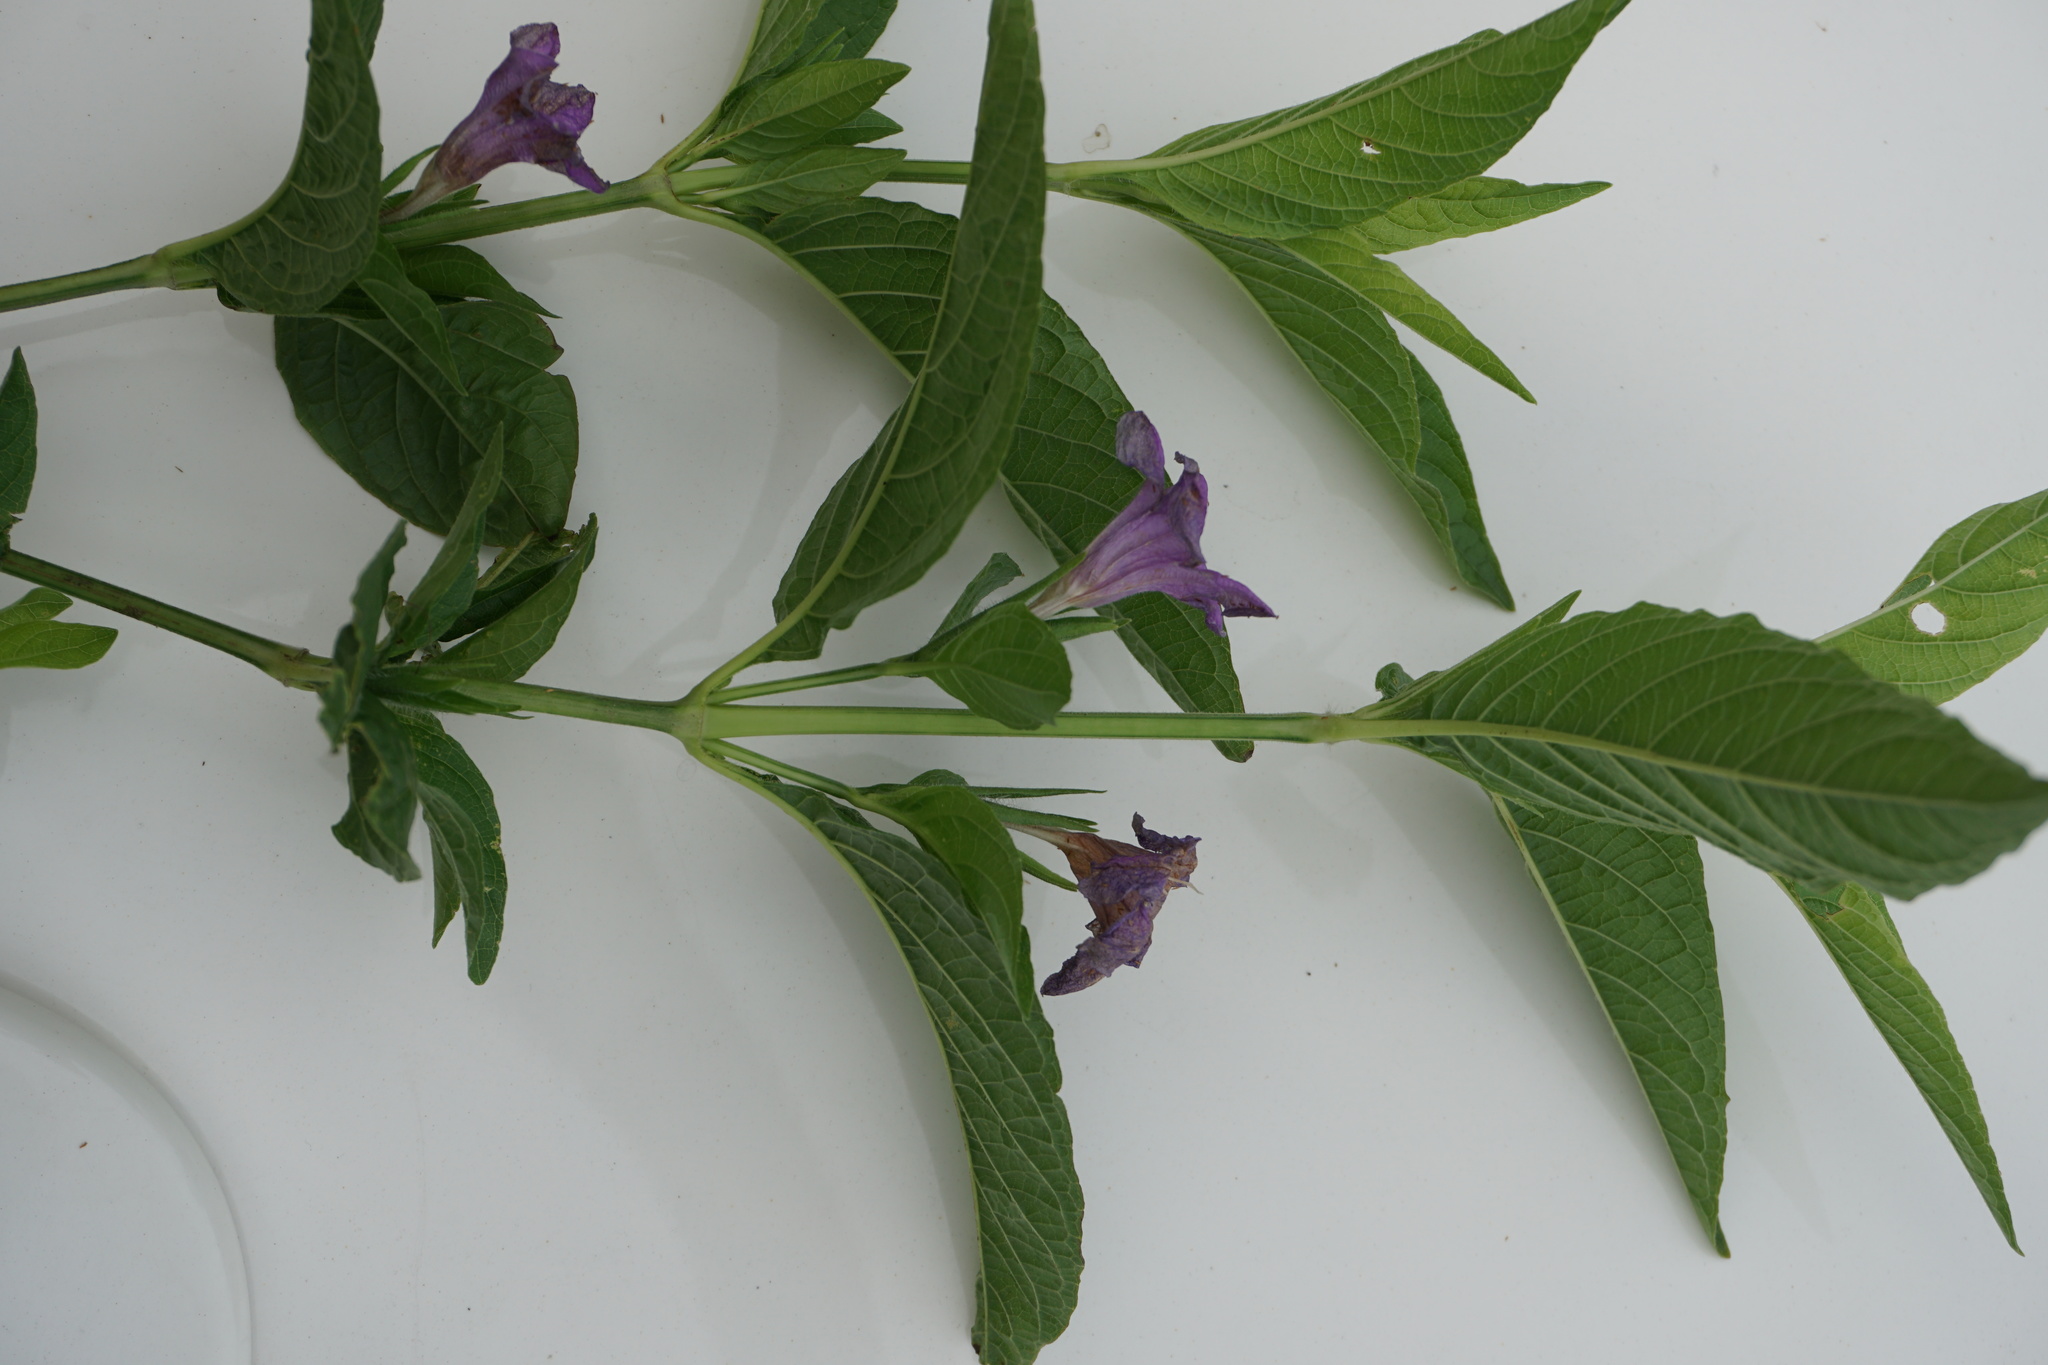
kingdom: Plantae
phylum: Tracheophyta
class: Magnoliopsida
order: Lamiales
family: Acanthaceae
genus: Ruellia
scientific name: Ruellia strepens
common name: Limestone wild petunia
